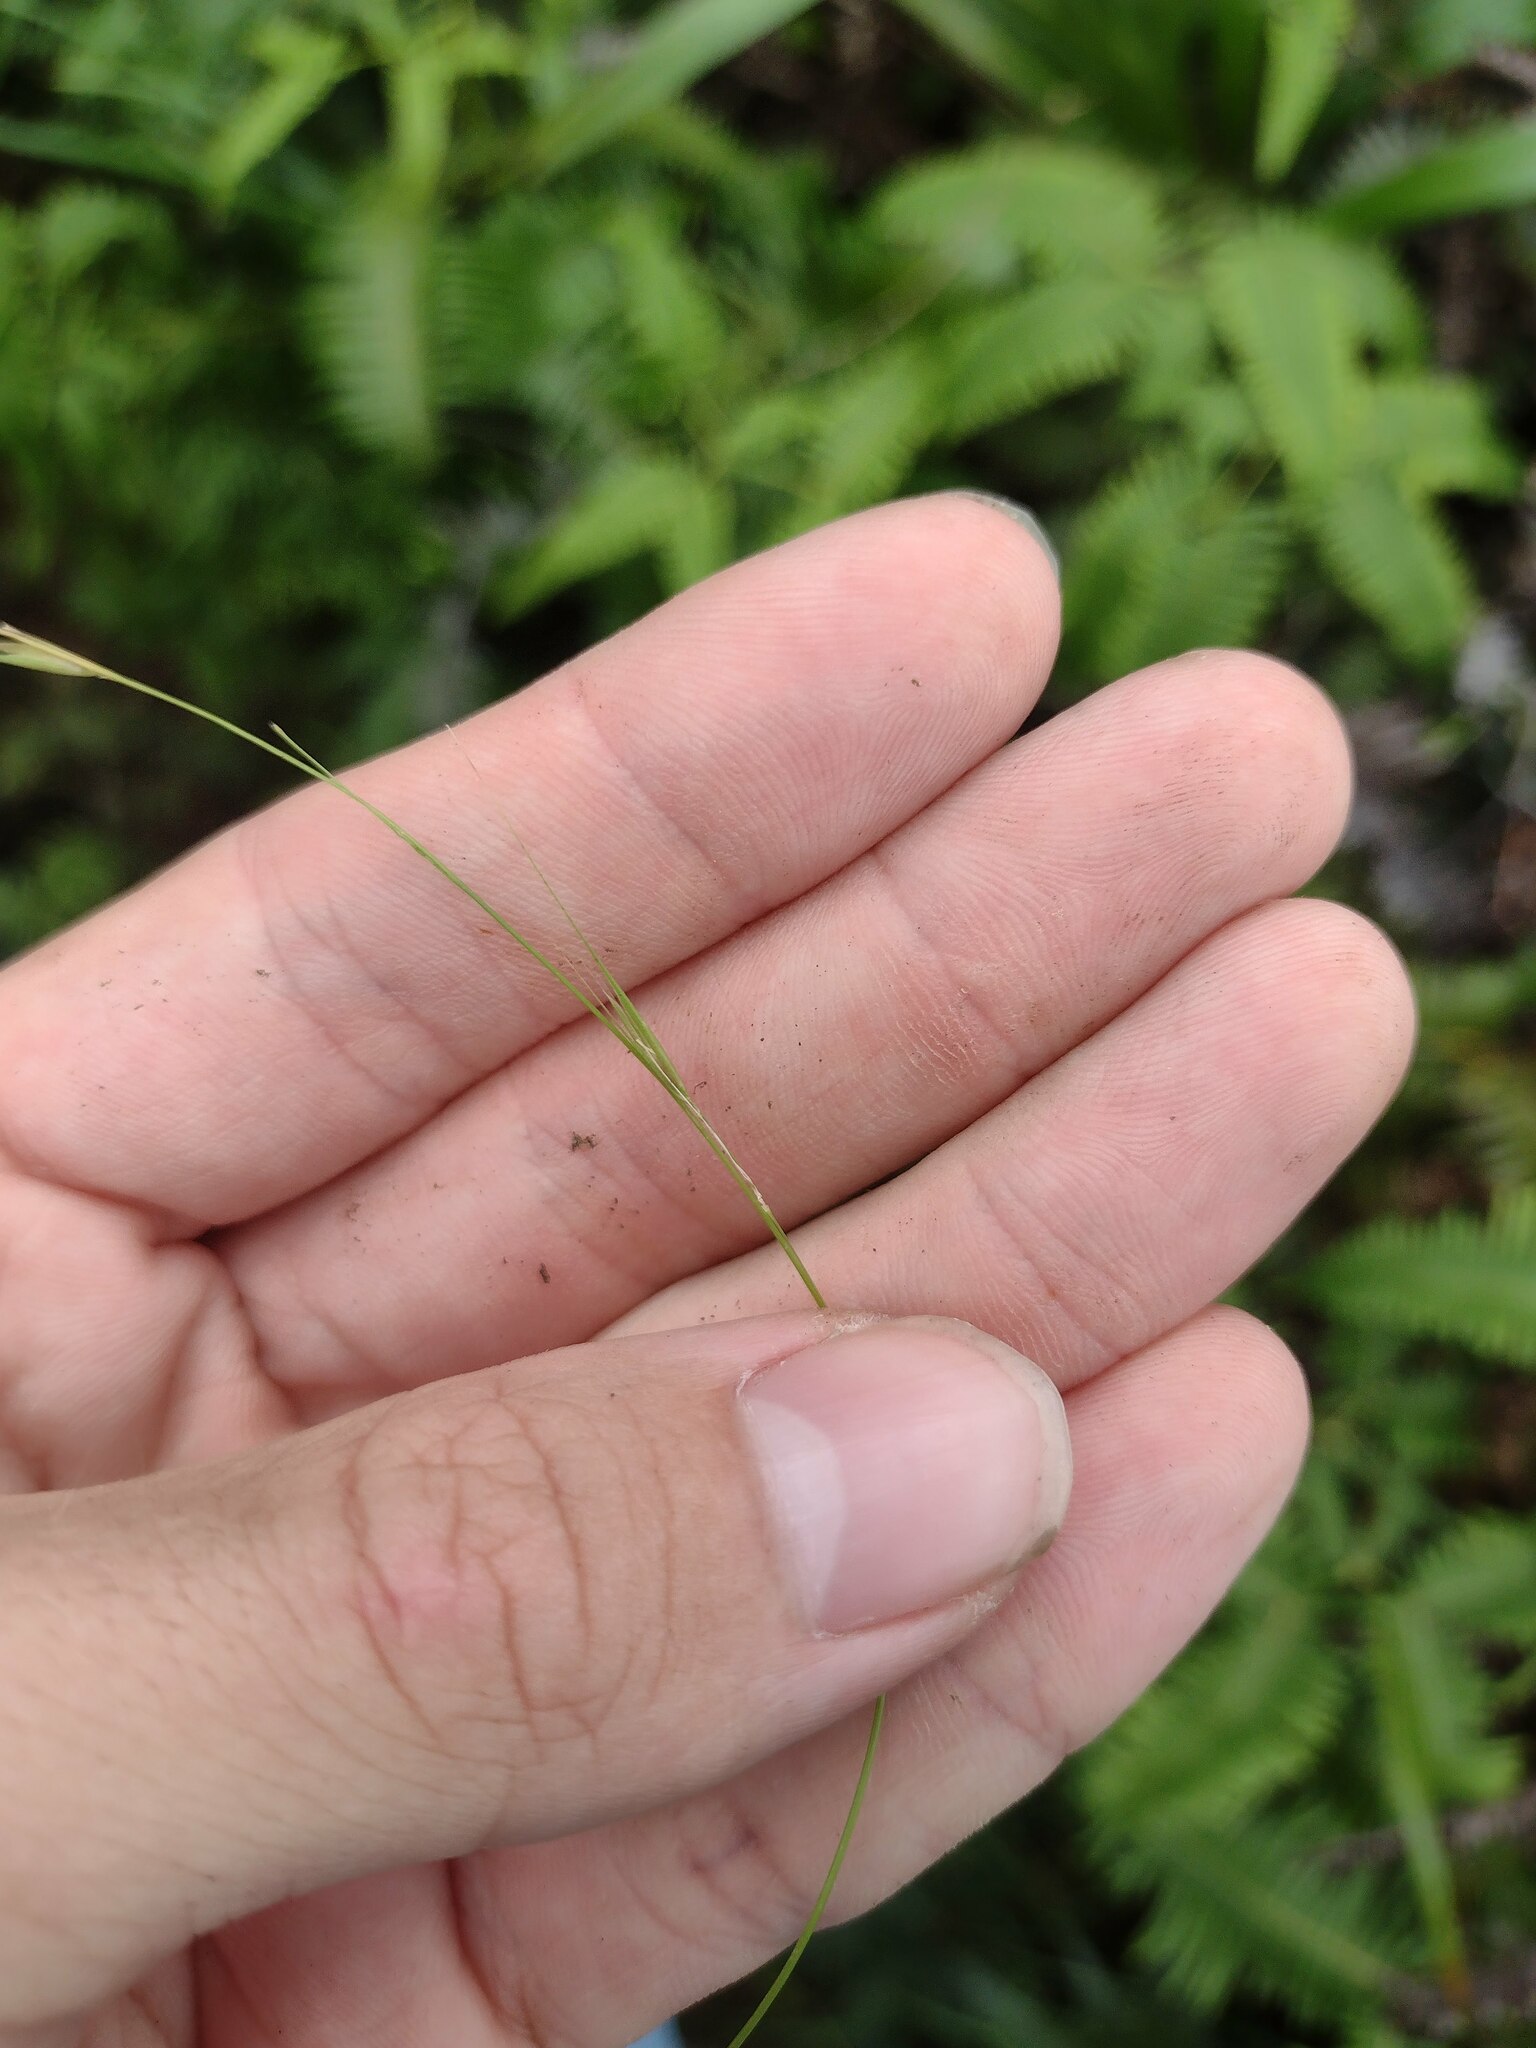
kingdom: Plantae
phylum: Tracheophyta
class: Liliopsida
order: Poales
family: Poaceae
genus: Microlaena
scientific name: Microlaena stipoides
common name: Meadow ricegrass
